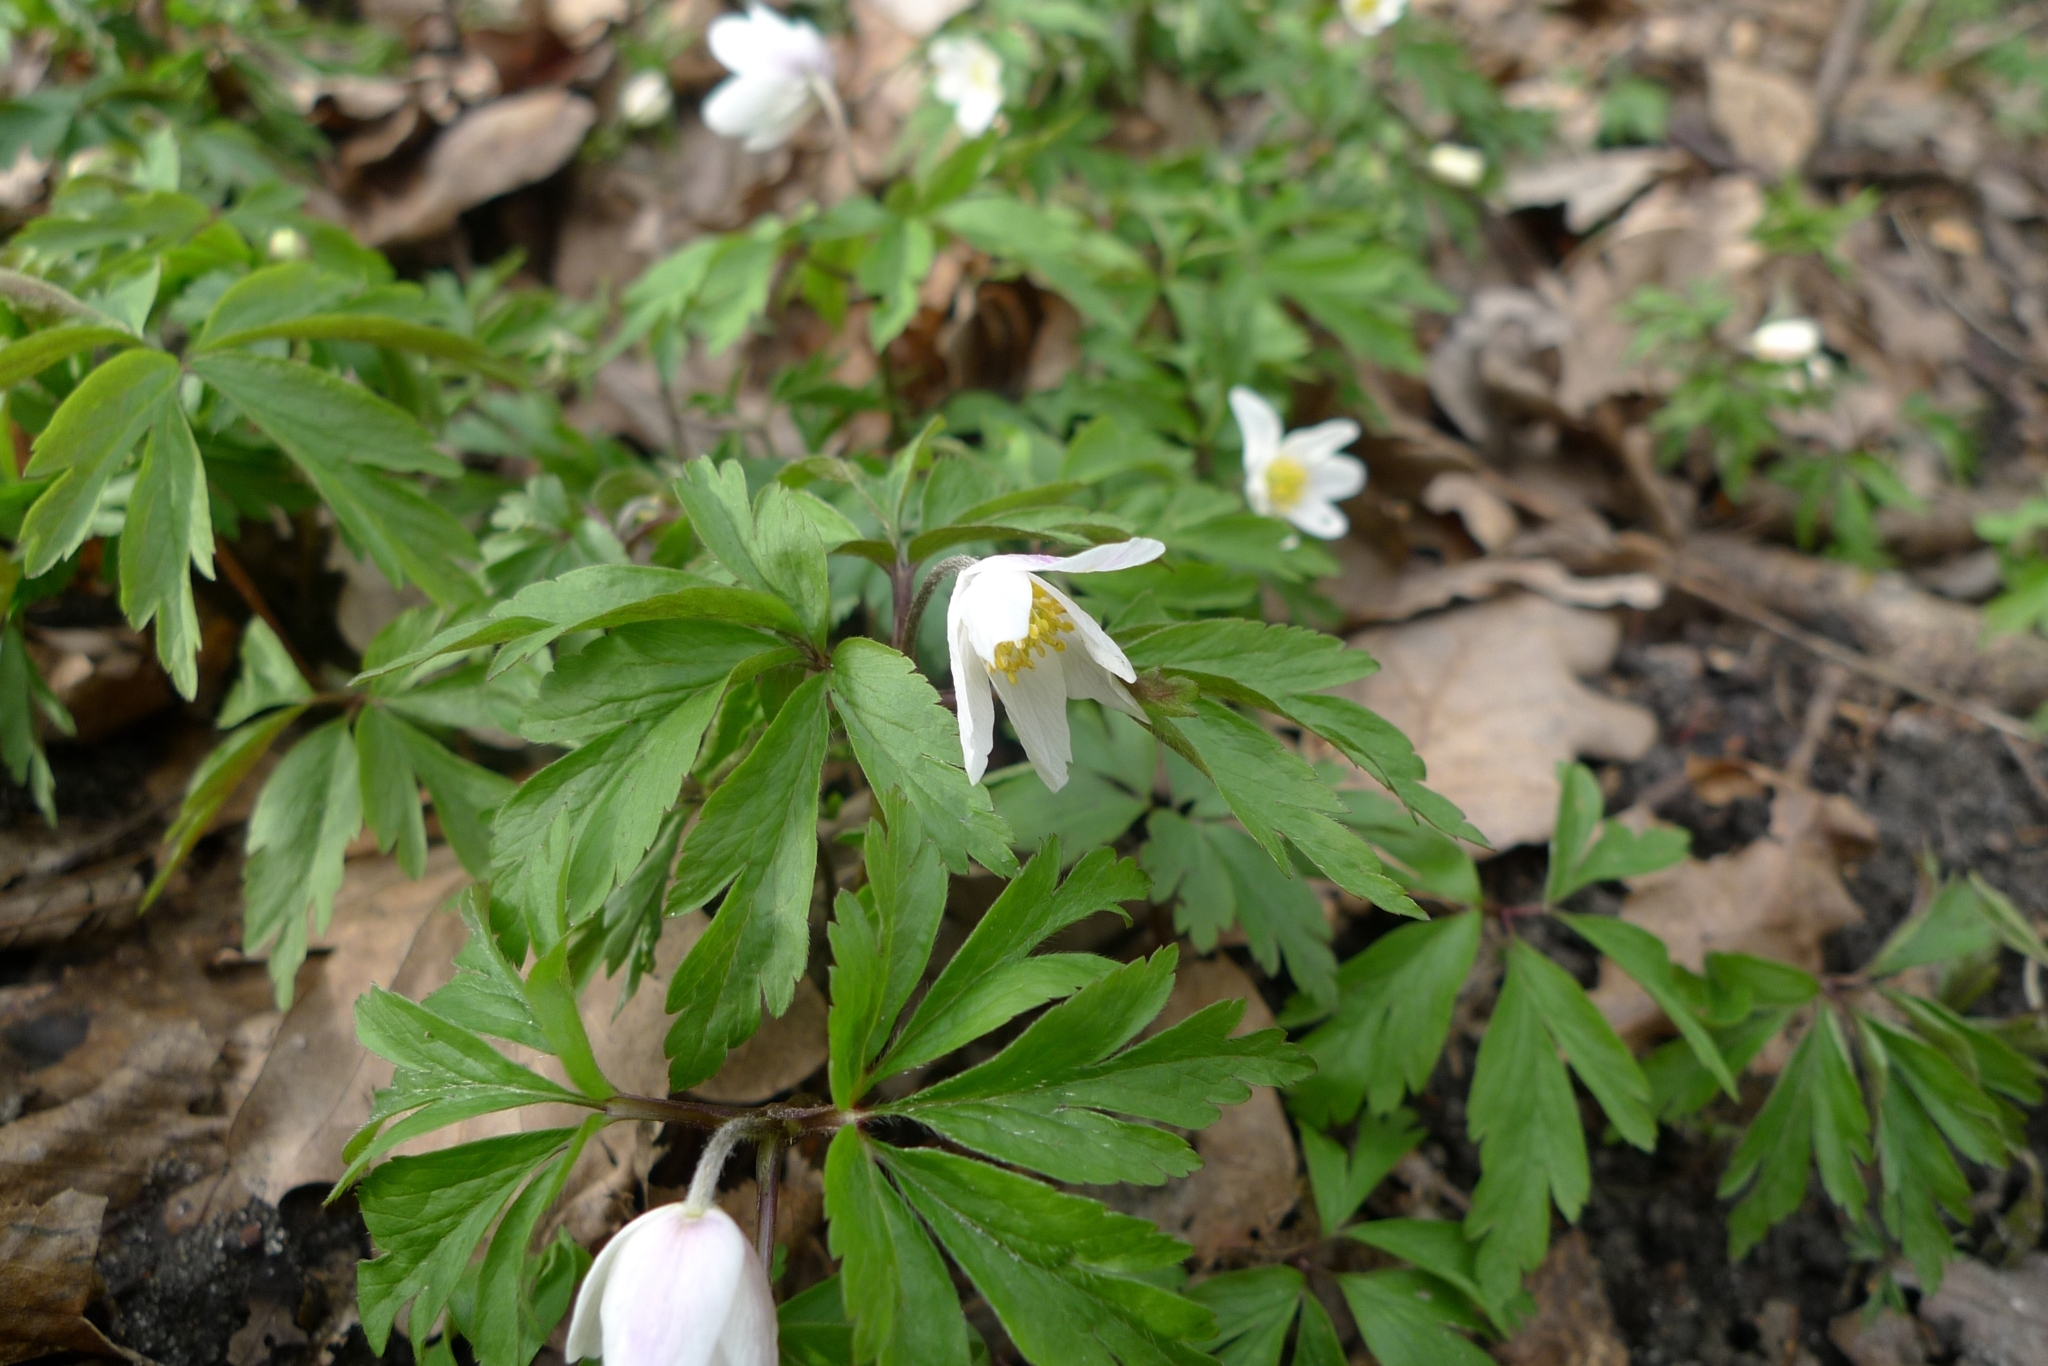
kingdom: Plantae
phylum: Tracheophyta
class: Magnoliopsida
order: Ranunculales
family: Ranunculaceae
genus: Anemone
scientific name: Anemone nemorosa
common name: Wood anemone
